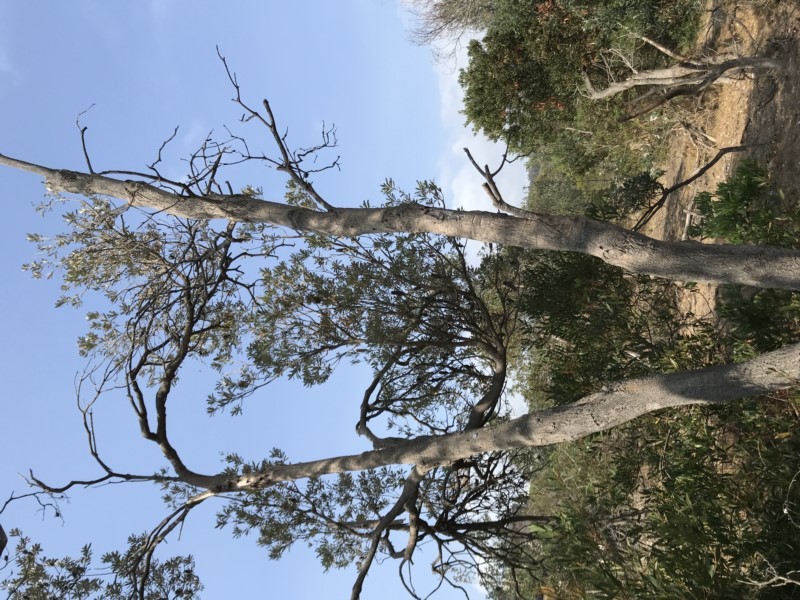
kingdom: Plantae
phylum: Tracheophyta
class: Magnoliopsida
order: Proteales
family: Proteaceae
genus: Banksia
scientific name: Banksia integrifolia
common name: White-honeysuckle
